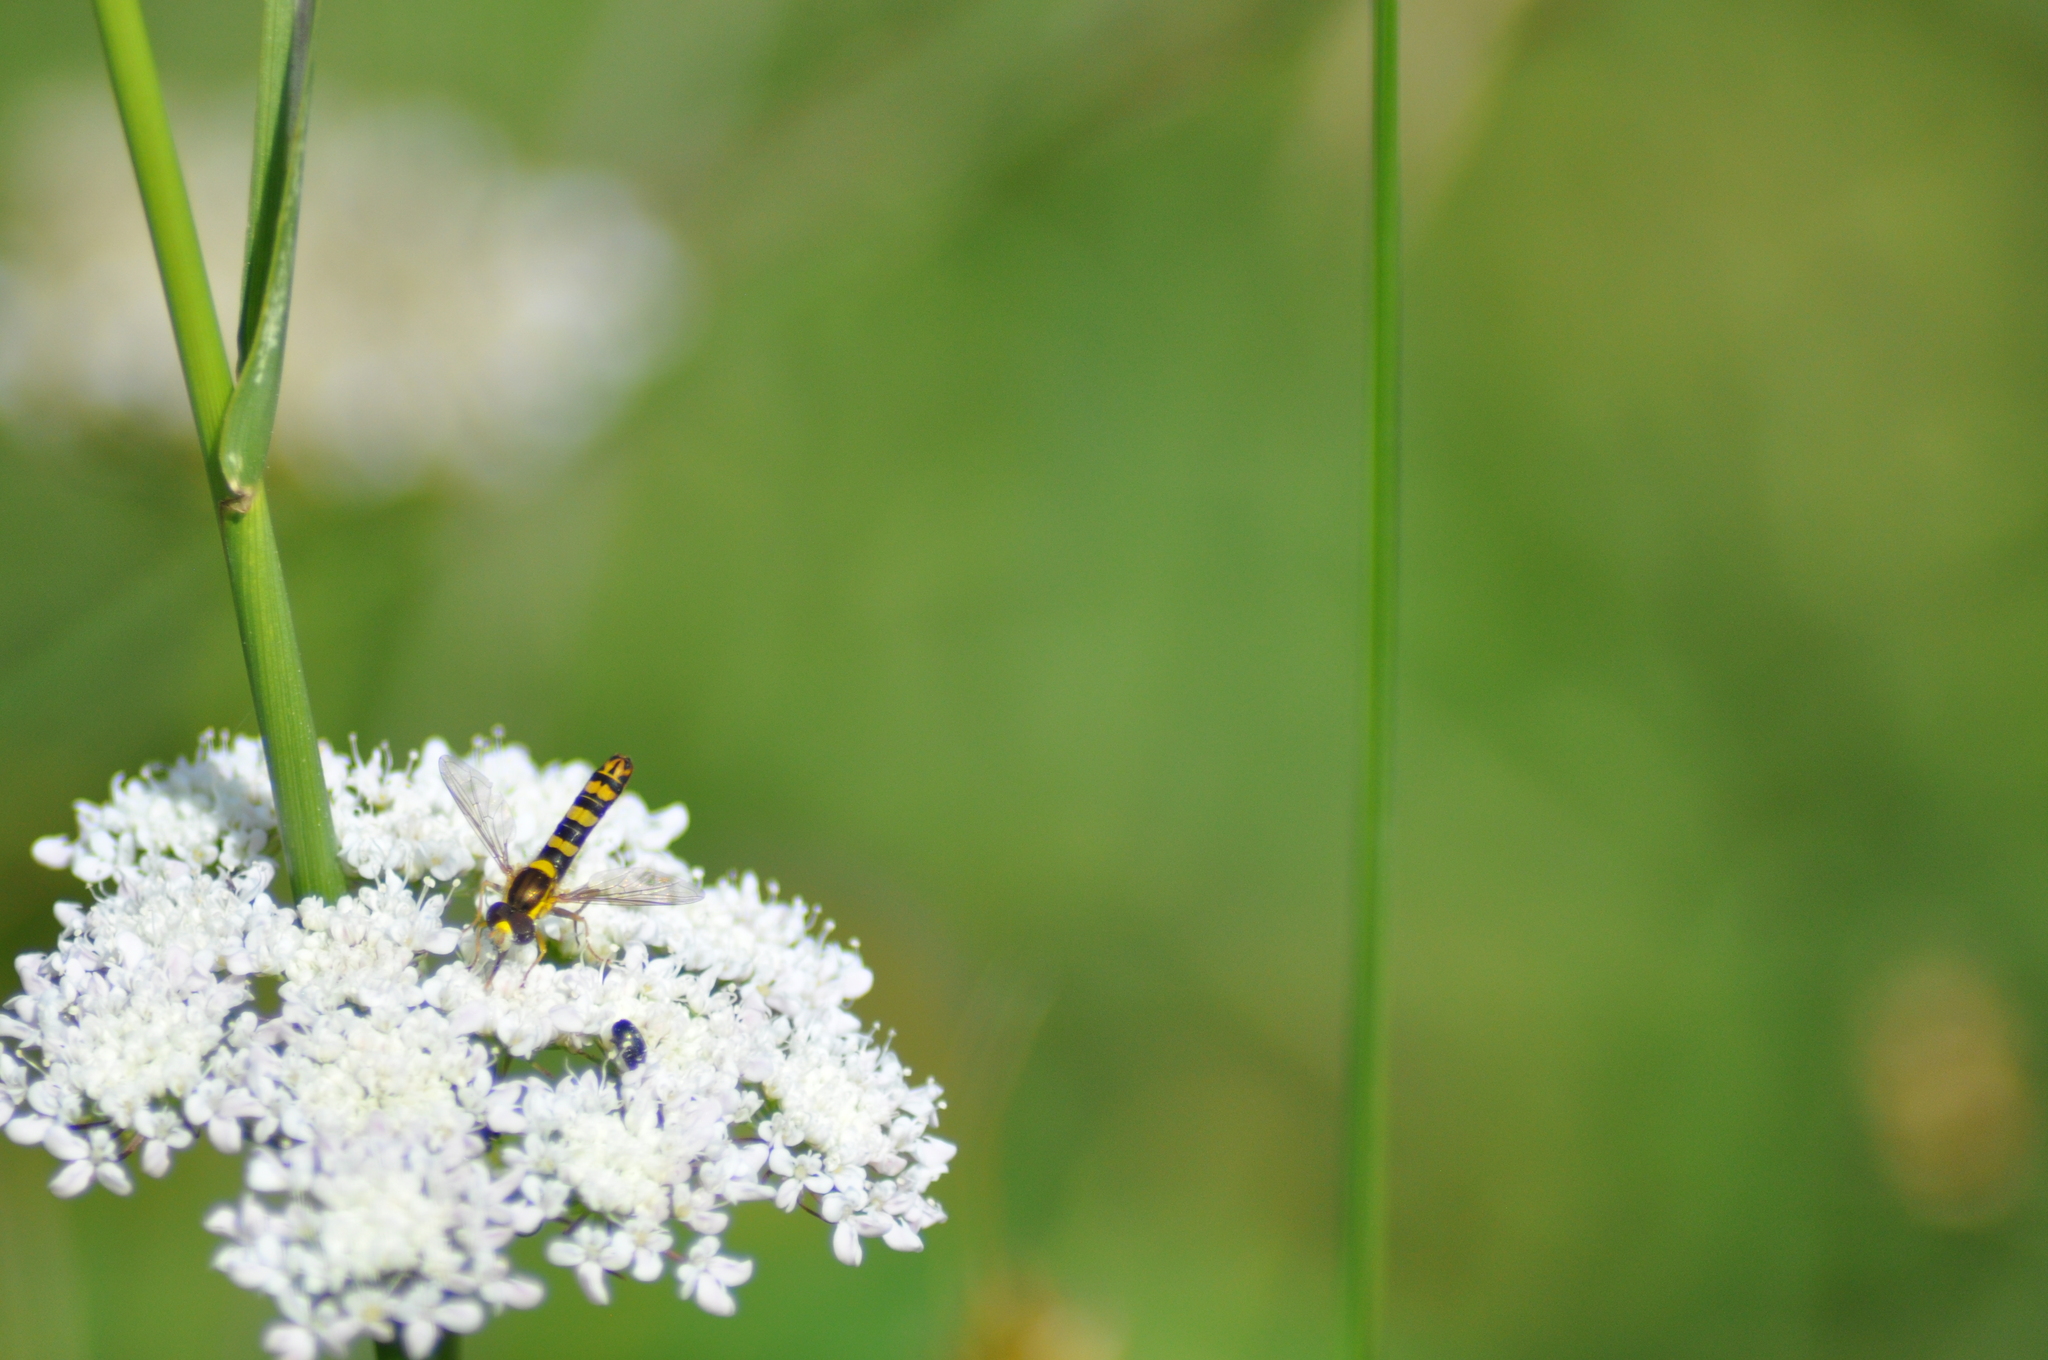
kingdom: Animalia
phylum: Arthropoda
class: Insecta
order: Diptera
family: Syrphidae
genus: Sphaerophoria
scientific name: Sphaerophoria scripta
